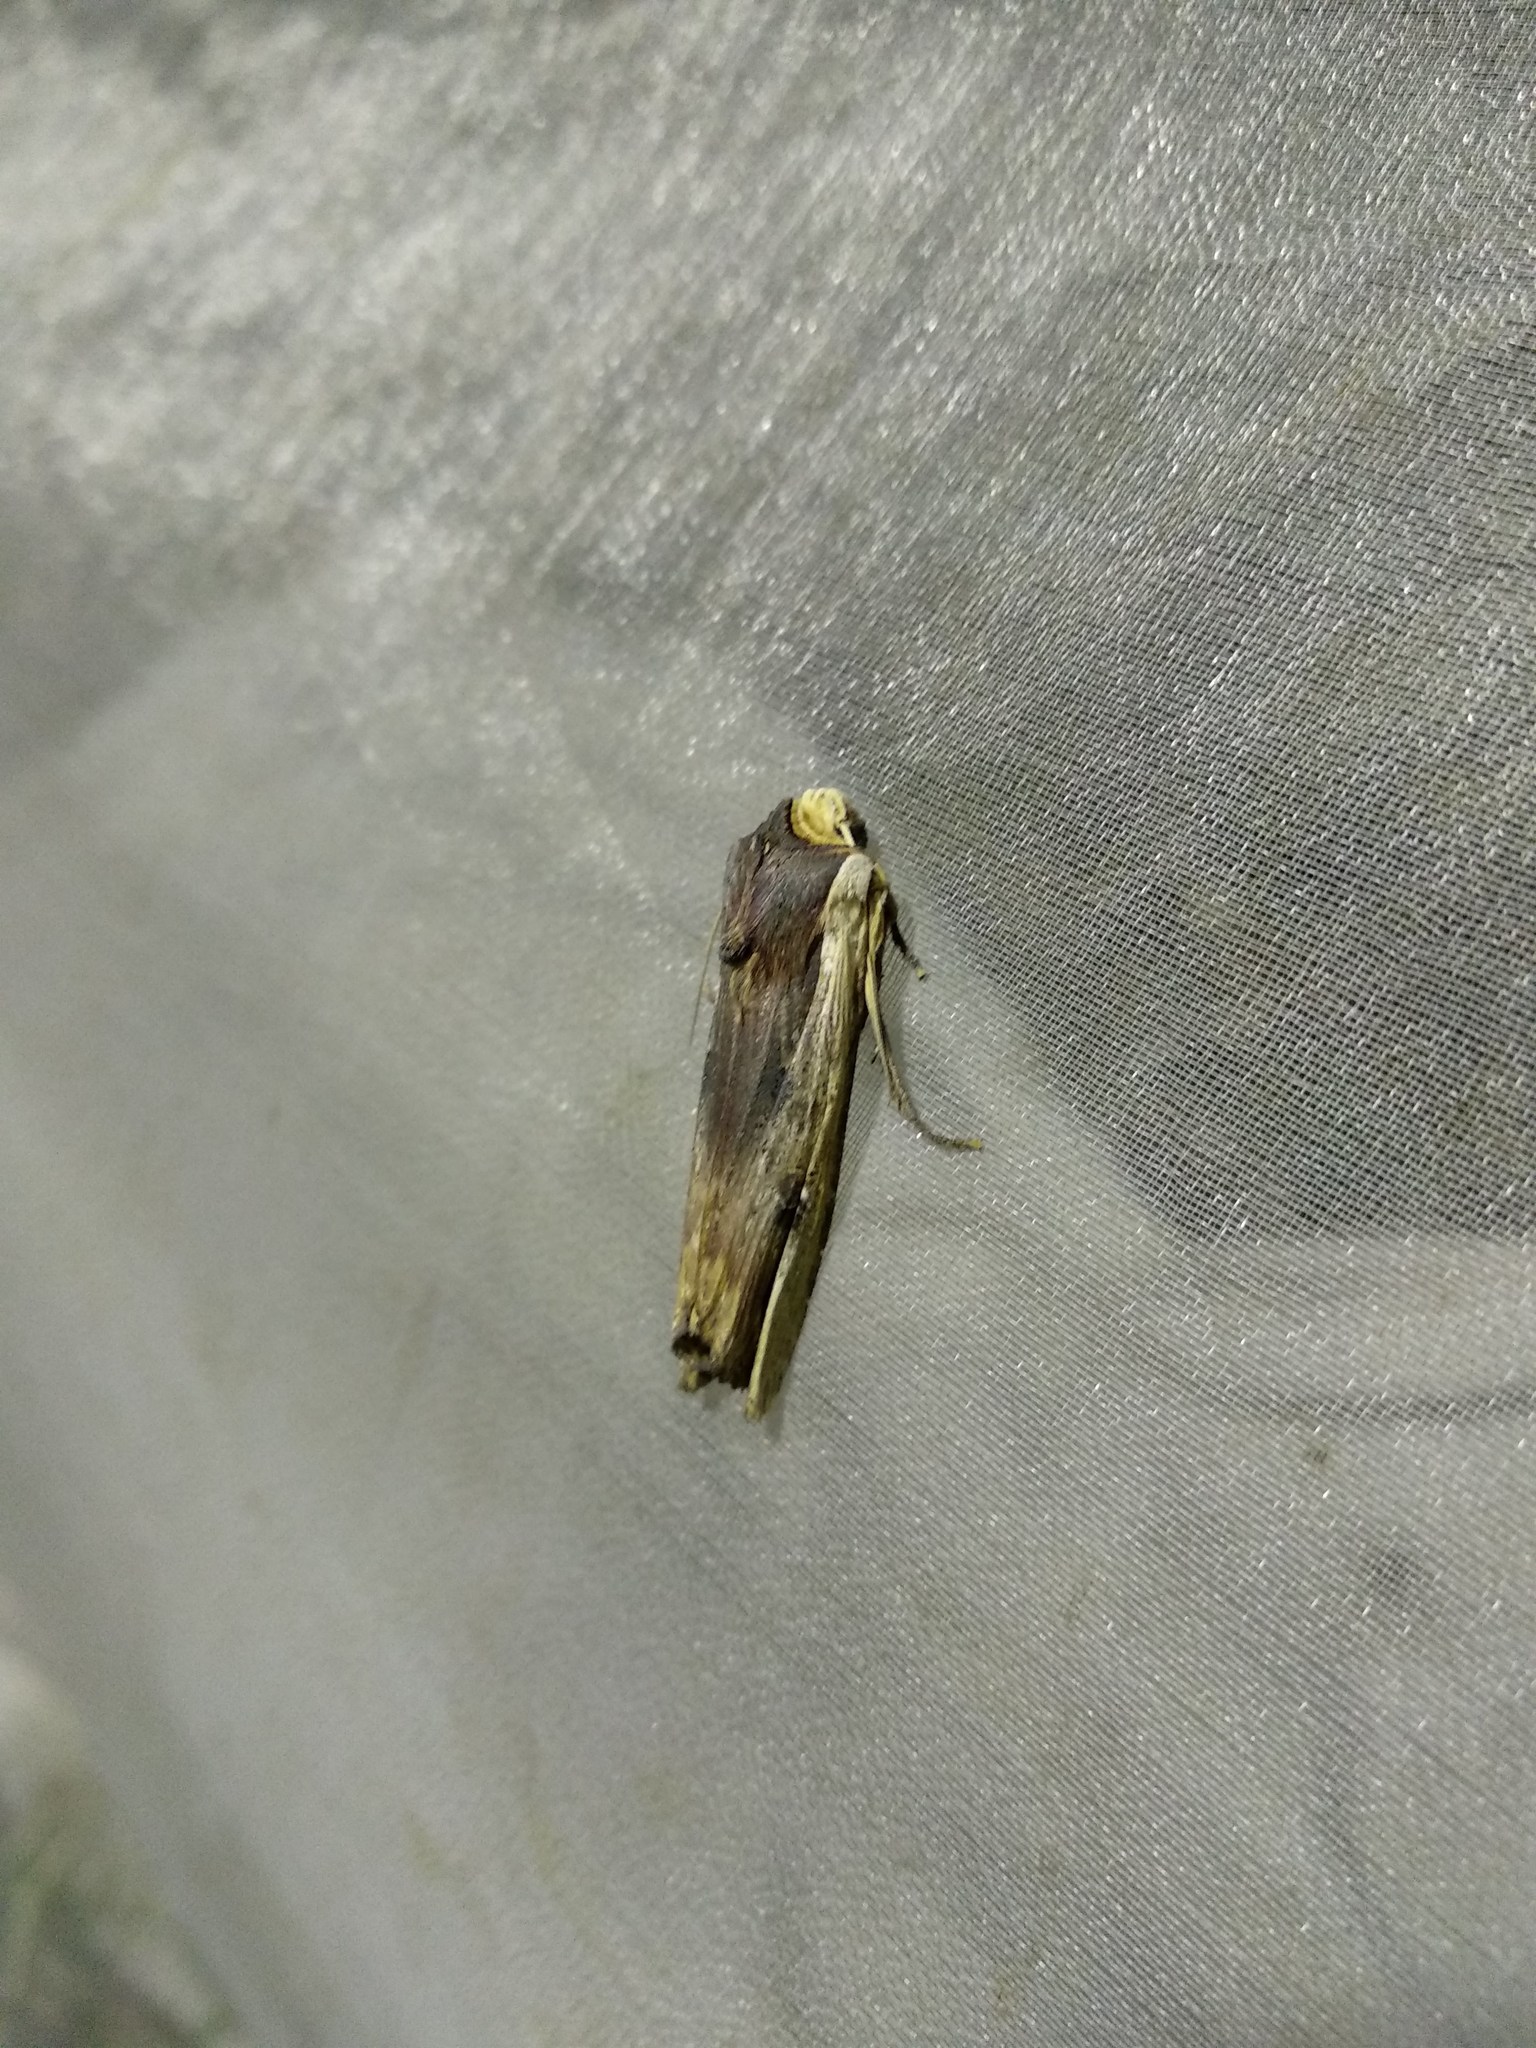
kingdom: Animalia
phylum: Arthropoda
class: Insecta
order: Lepidoptera
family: Noctuidae
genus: Xylena
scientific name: Xylena vetusta
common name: Red sword-grass
